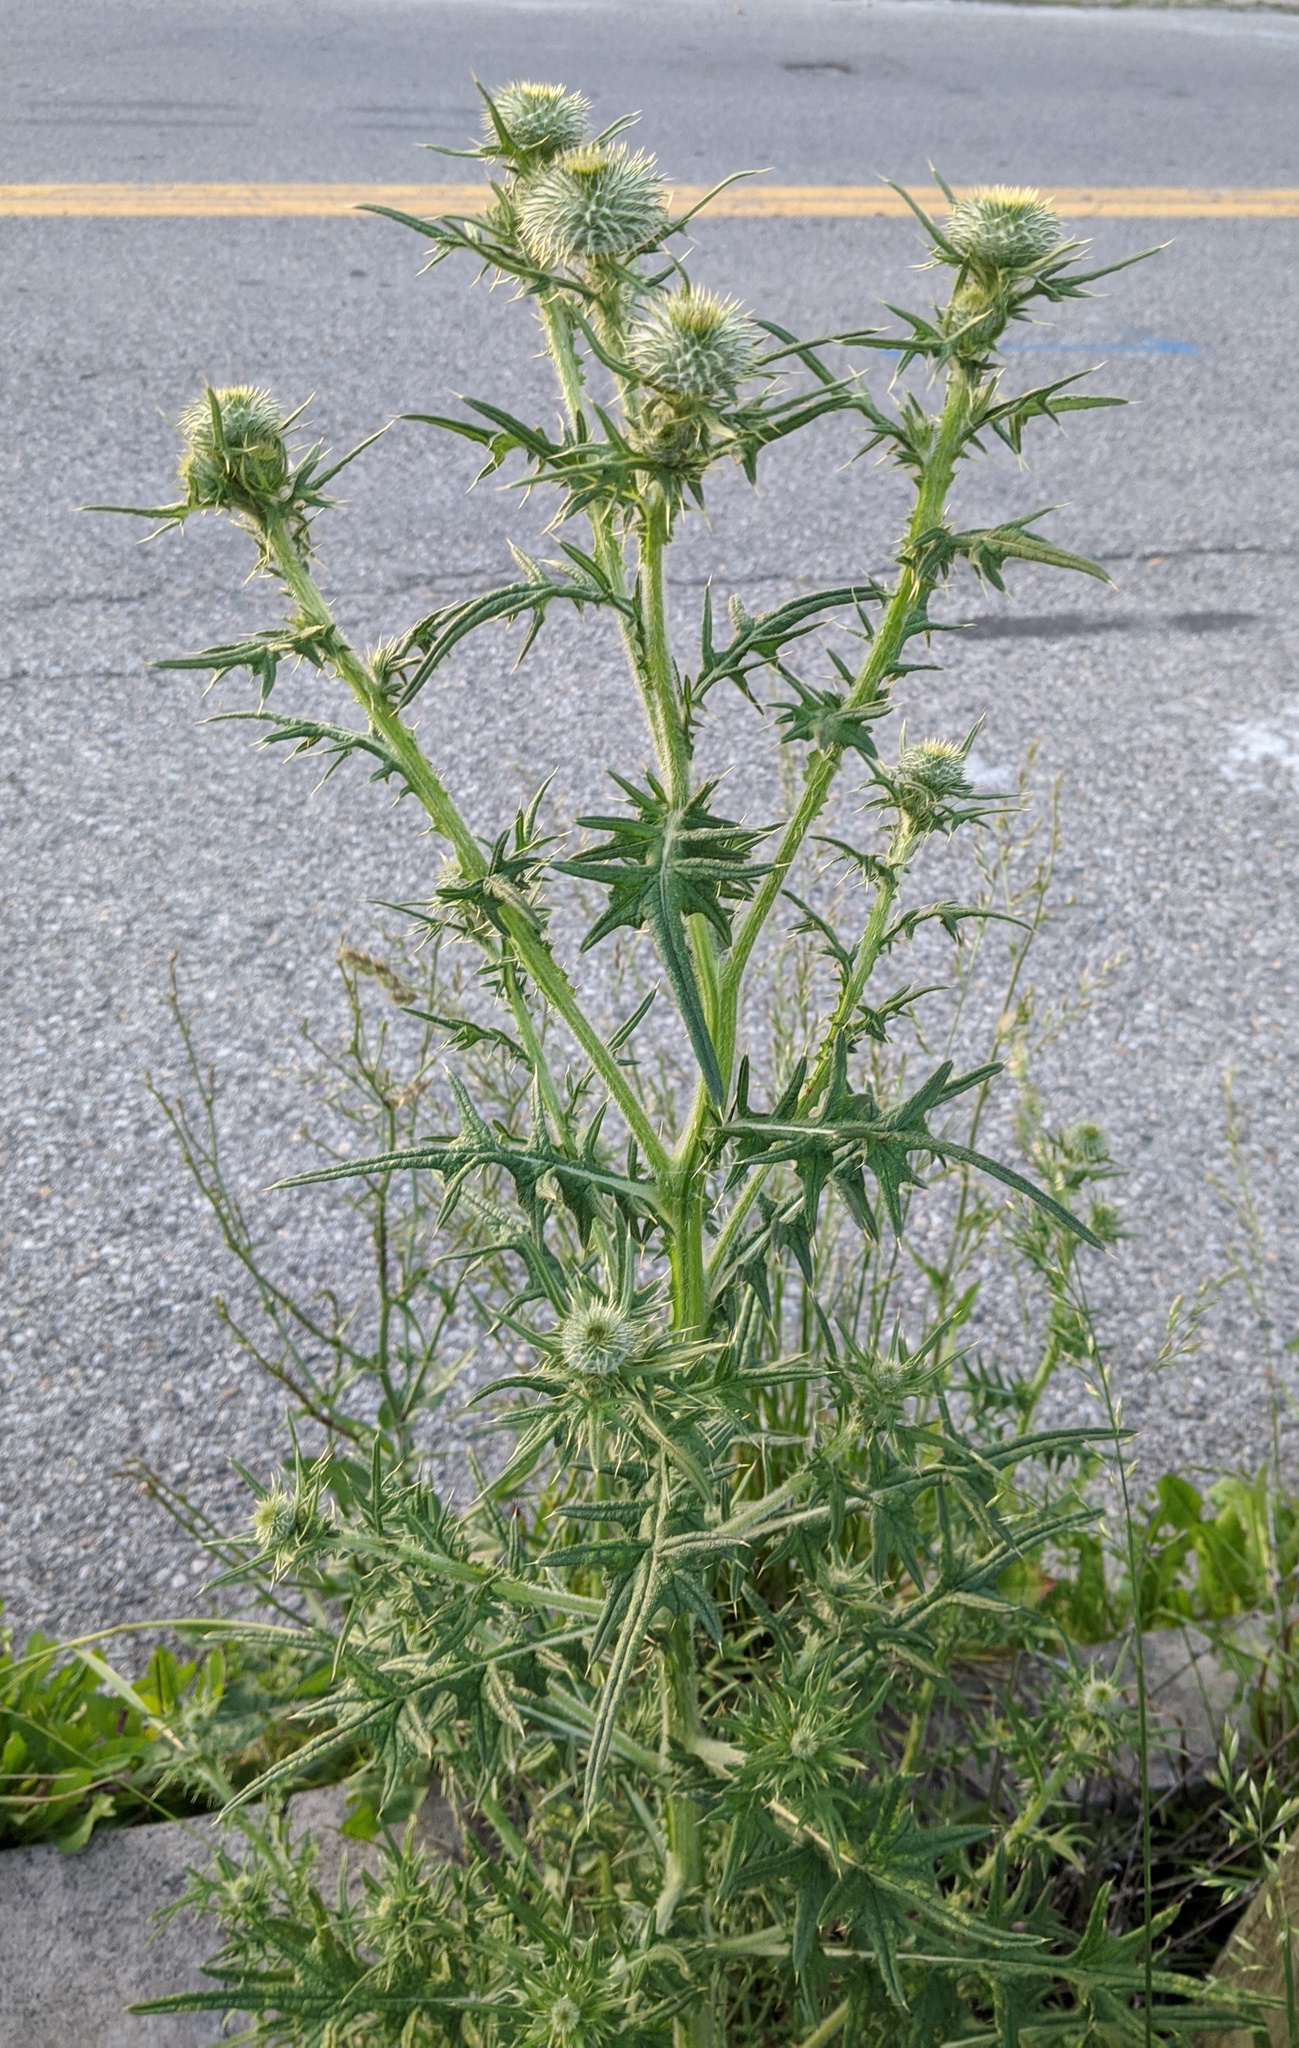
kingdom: Plantae
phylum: Tracheophyta
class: Magnoliopsida
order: Asterales
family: Asteraceae
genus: Cirsium
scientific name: Cirsium vulgare
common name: Bull thistle
